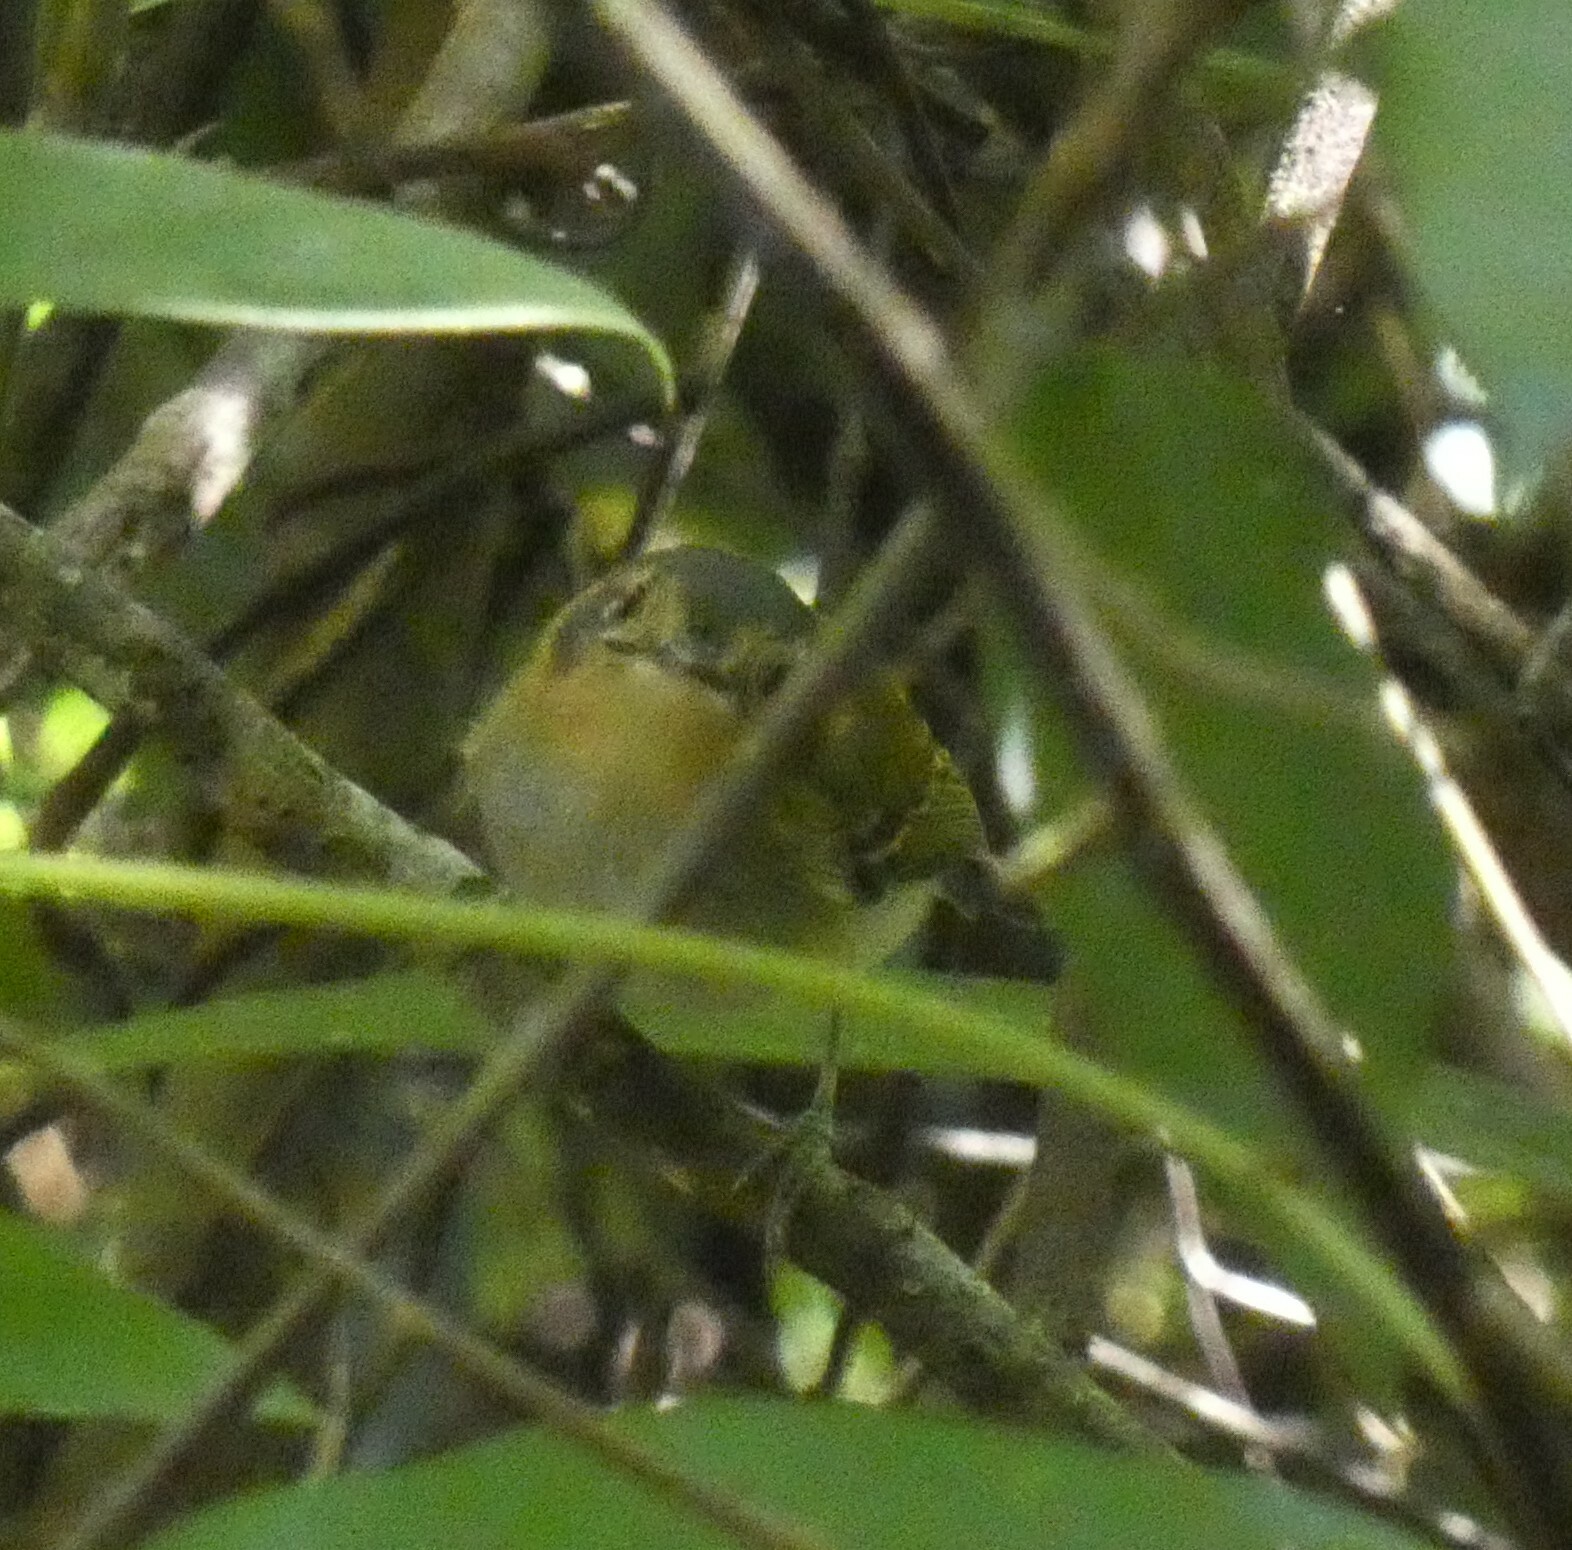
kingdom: Animalia
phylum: Chordata
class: Aves
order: Passeriformes
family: Tyrannidae
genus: Poecilotriccus
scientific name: Poecilotriccus plumbeiceps
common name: Ochre-faced tody-flycatcher
